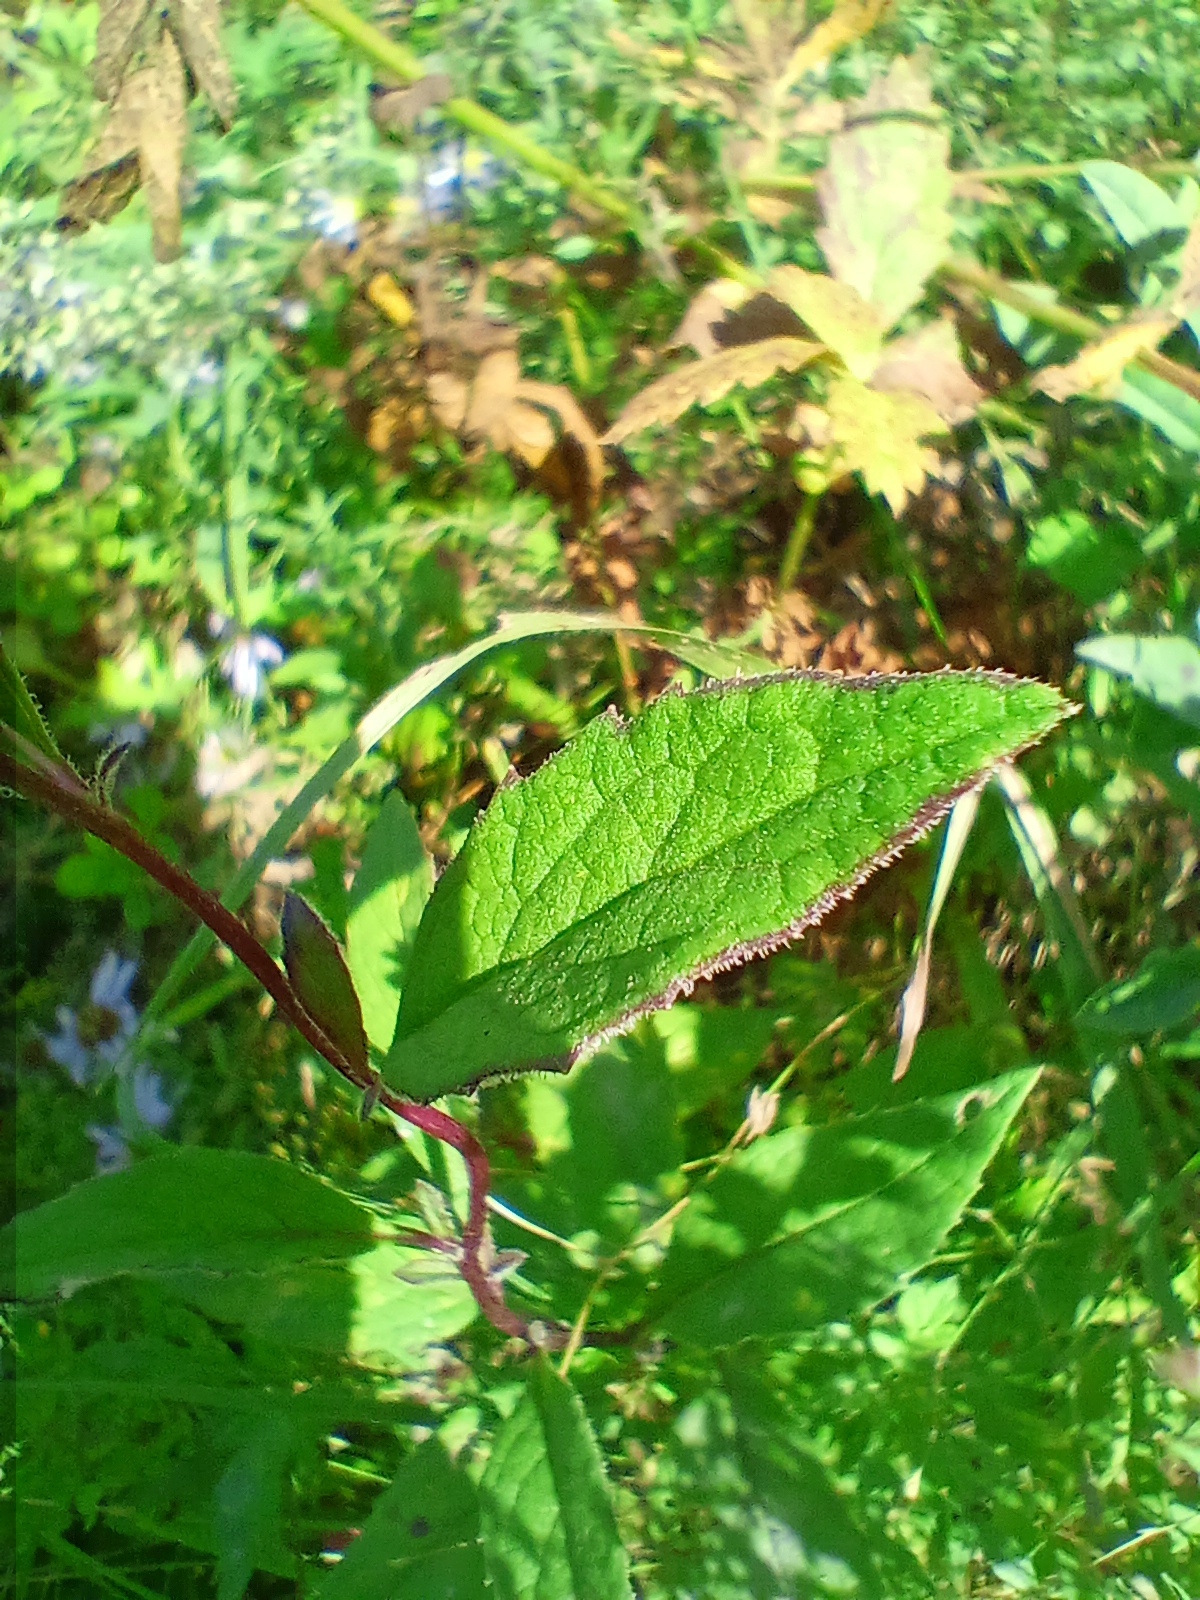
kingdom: Plantae
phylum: Tracheophyta
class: Magnoliopsida
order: Asterales
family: Asteraceae
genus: Senecio
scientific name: Senecio nemorensis
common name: Alpine ragwort
